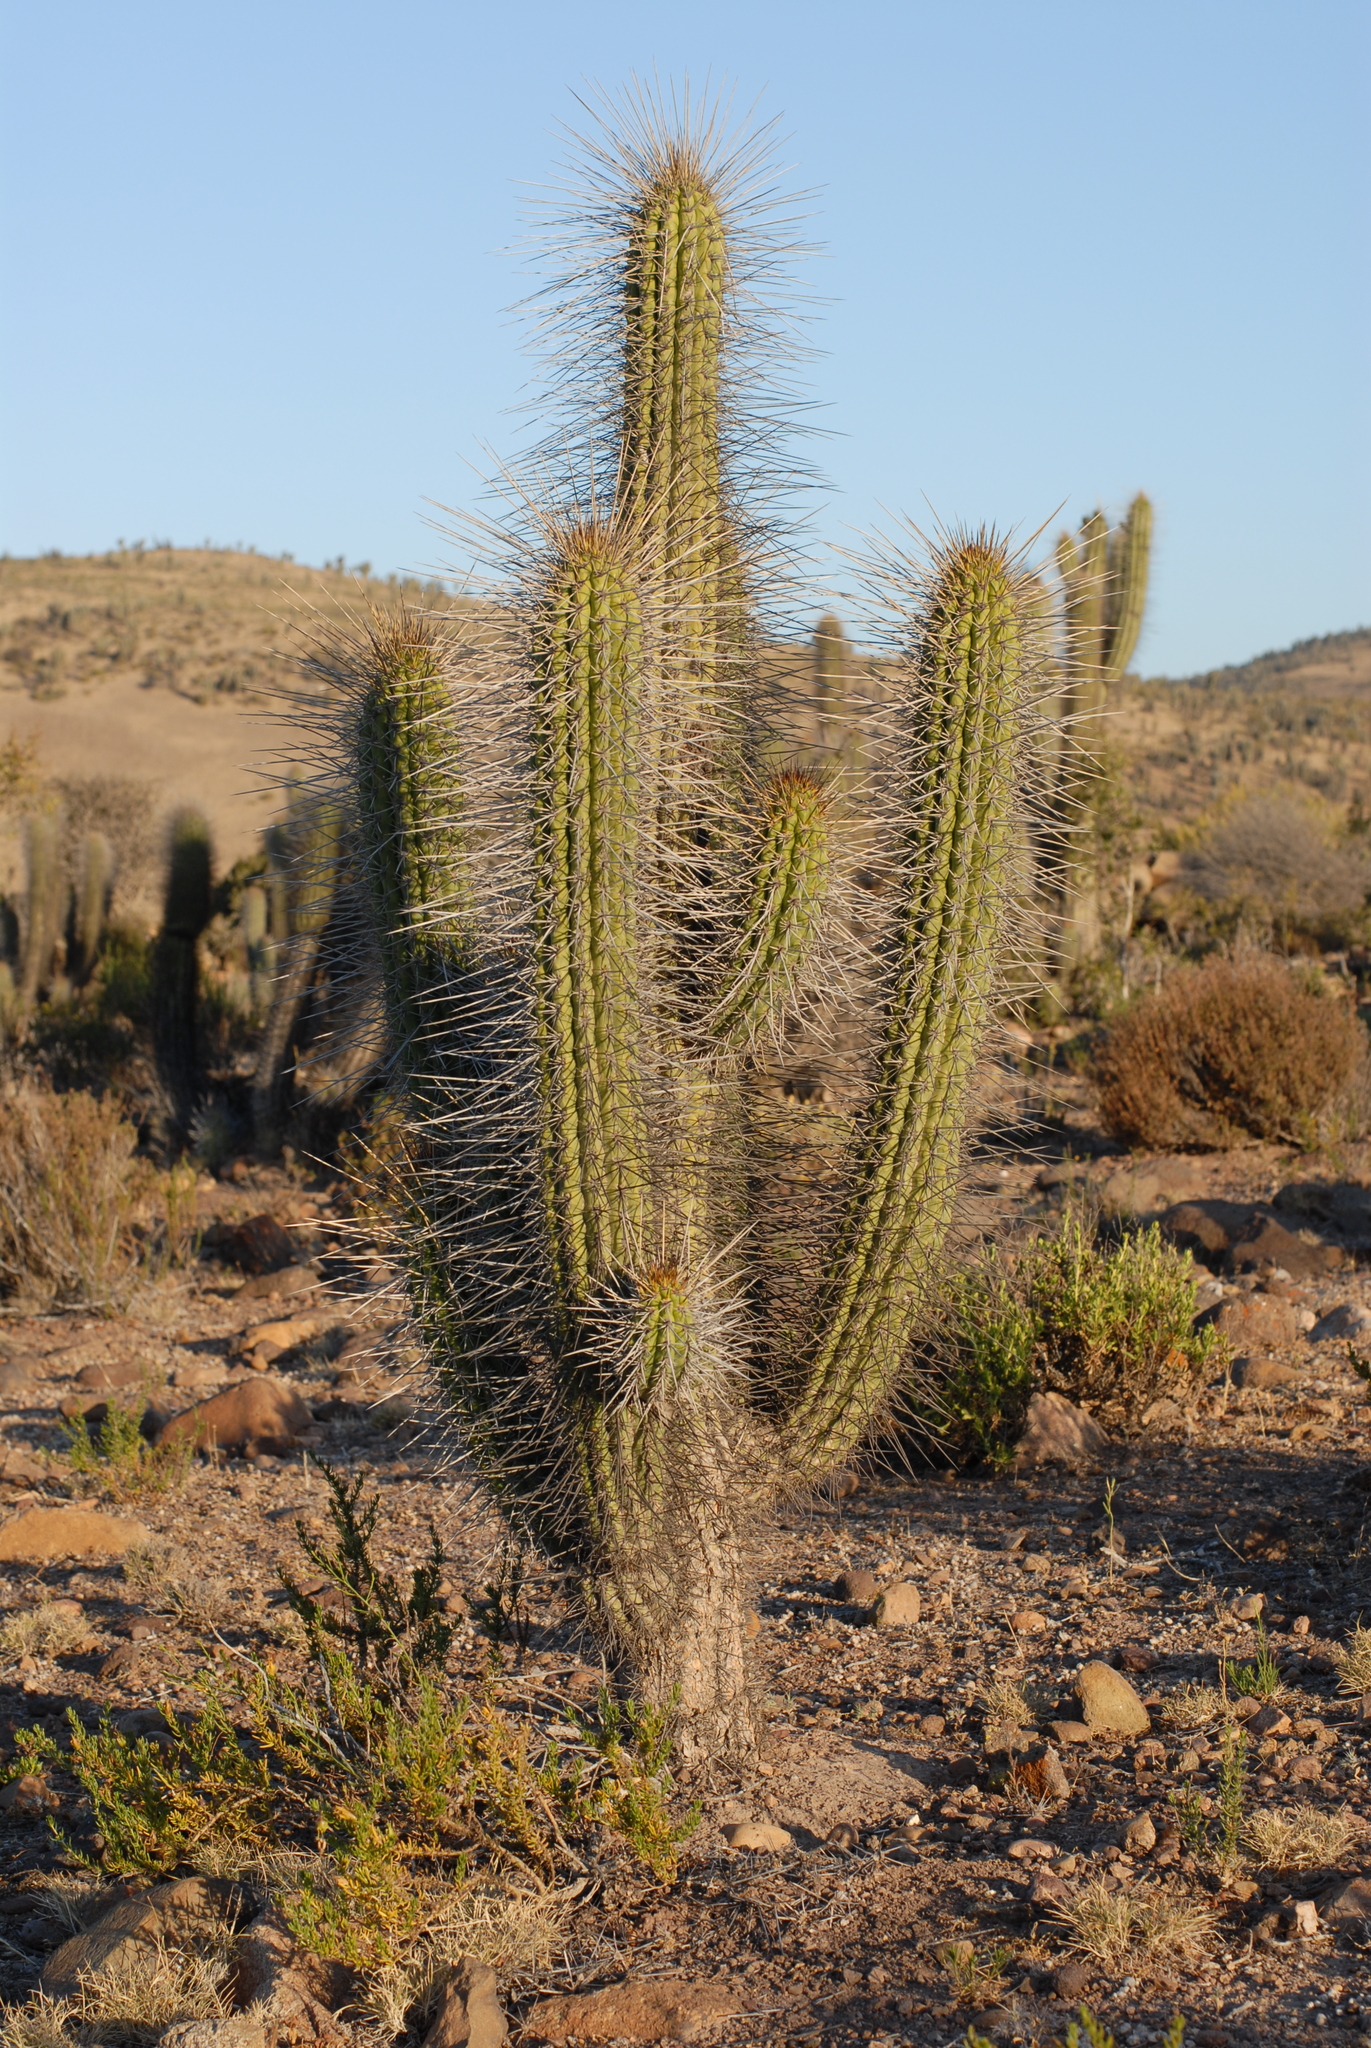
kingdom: Plantae
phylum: Tracheophyta
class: Magnoliopsida
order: Caryophyllales
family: Cactaceae
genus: Eulychnia
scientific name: Eulychnia acida
